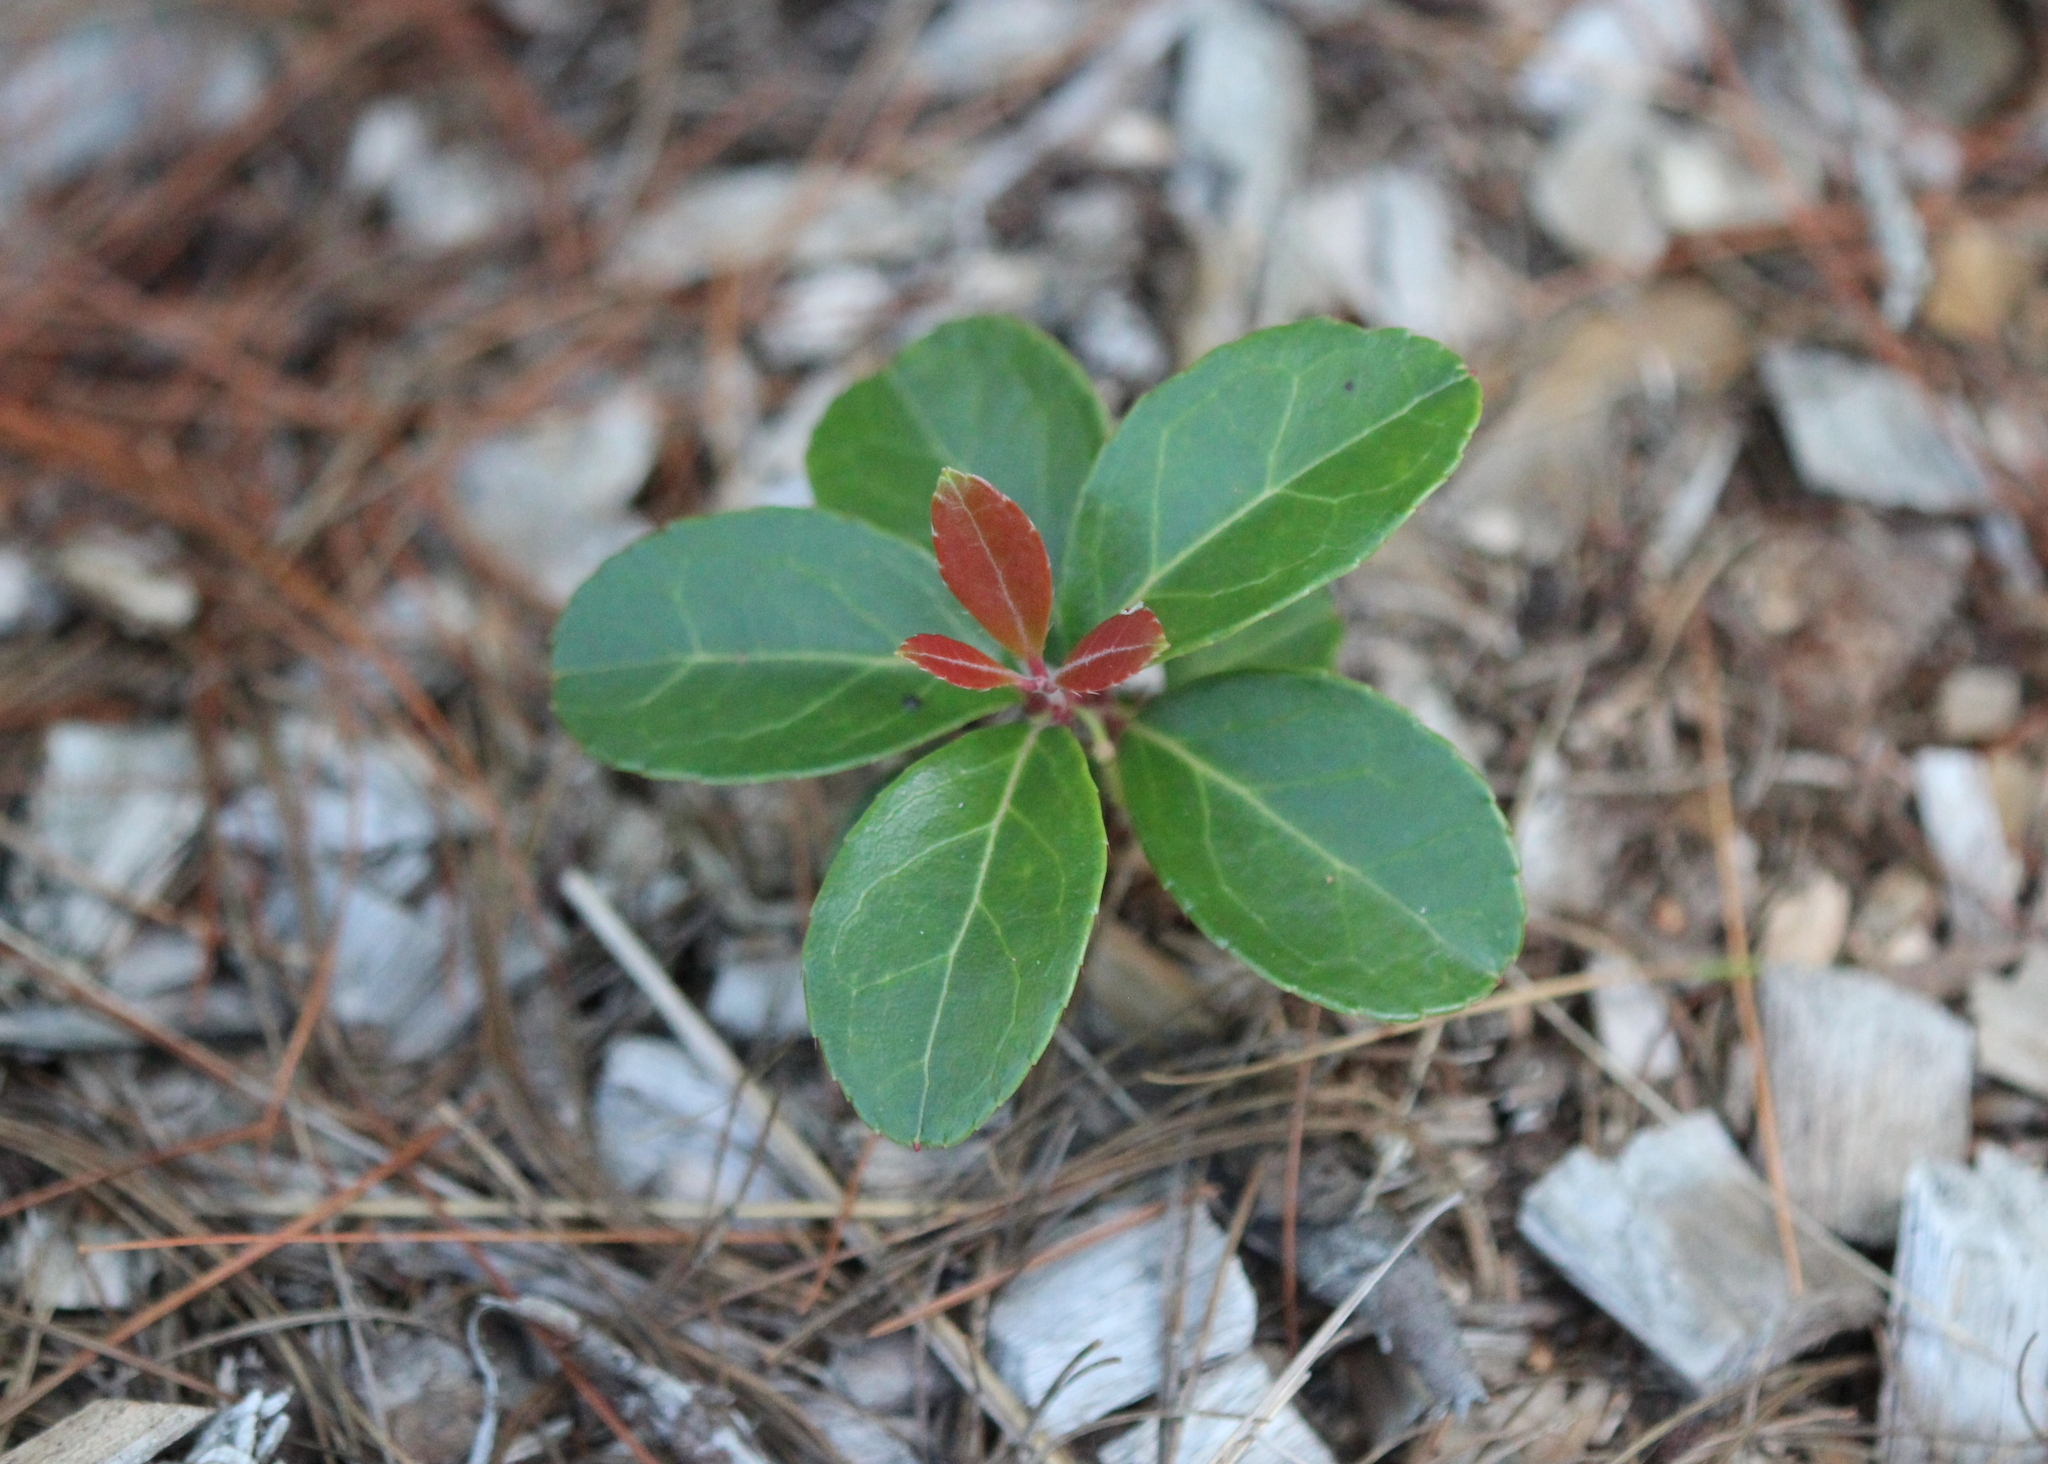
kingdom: Plantae
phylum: Tracheophyta
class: Magnoliopsida
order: Ericales
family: Ericaceae
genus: Gaultheria
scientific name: Gaultheria procumbens
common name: Checkerberry
